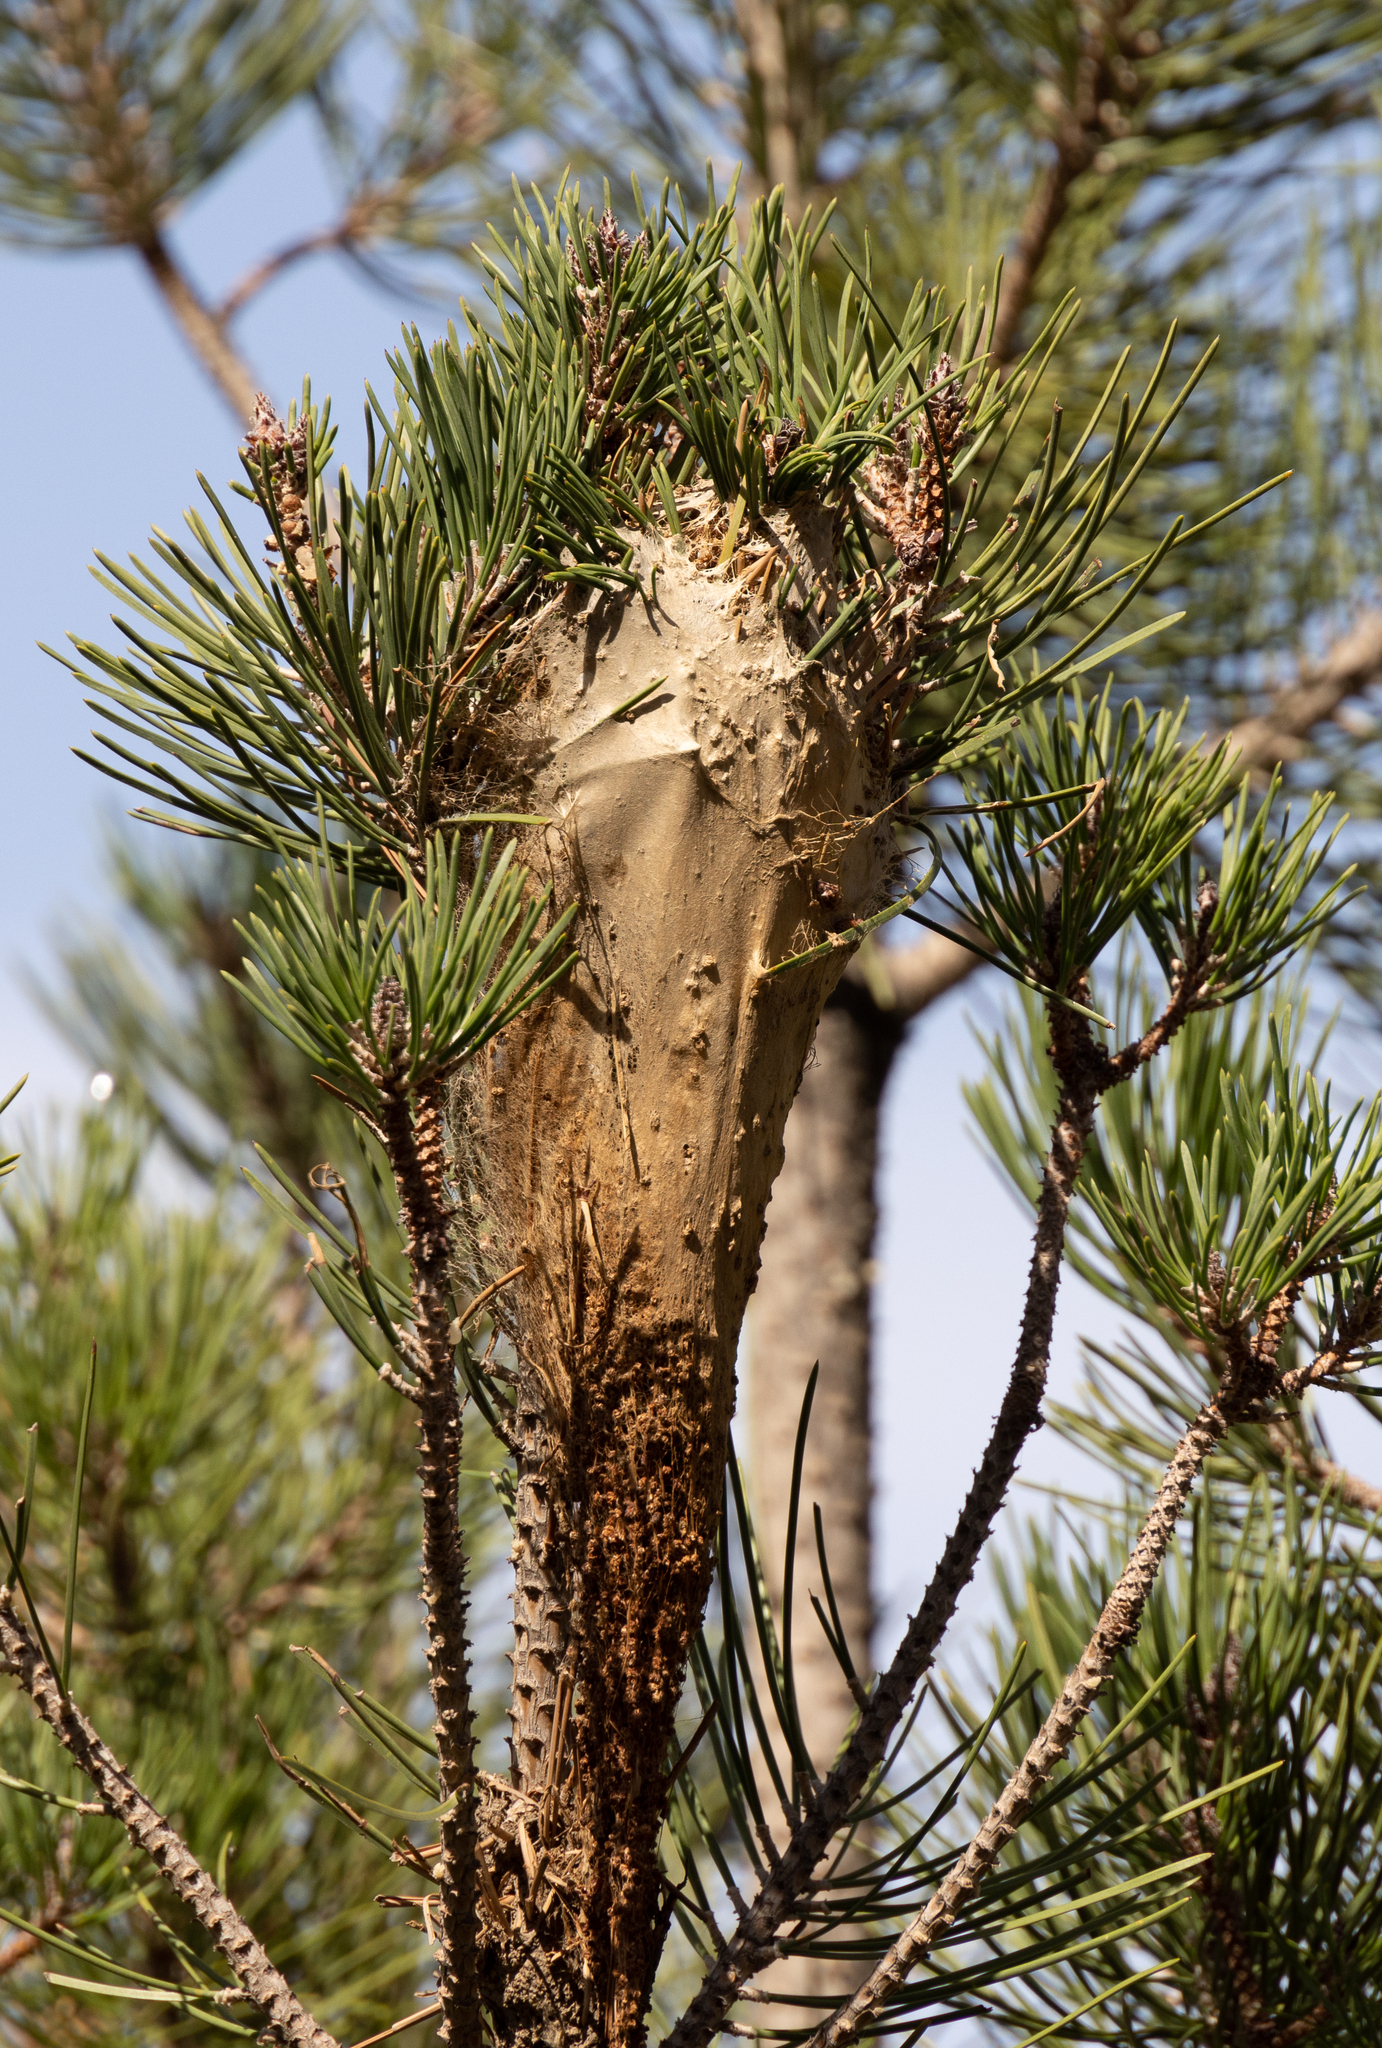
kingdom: Animalia
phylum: Arthropoda
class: Insecta
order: Lepidoptera
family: Notodontidae
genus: Thaumetopoea
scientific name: Thaumetopoea pityocampa
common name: Pine processionary
